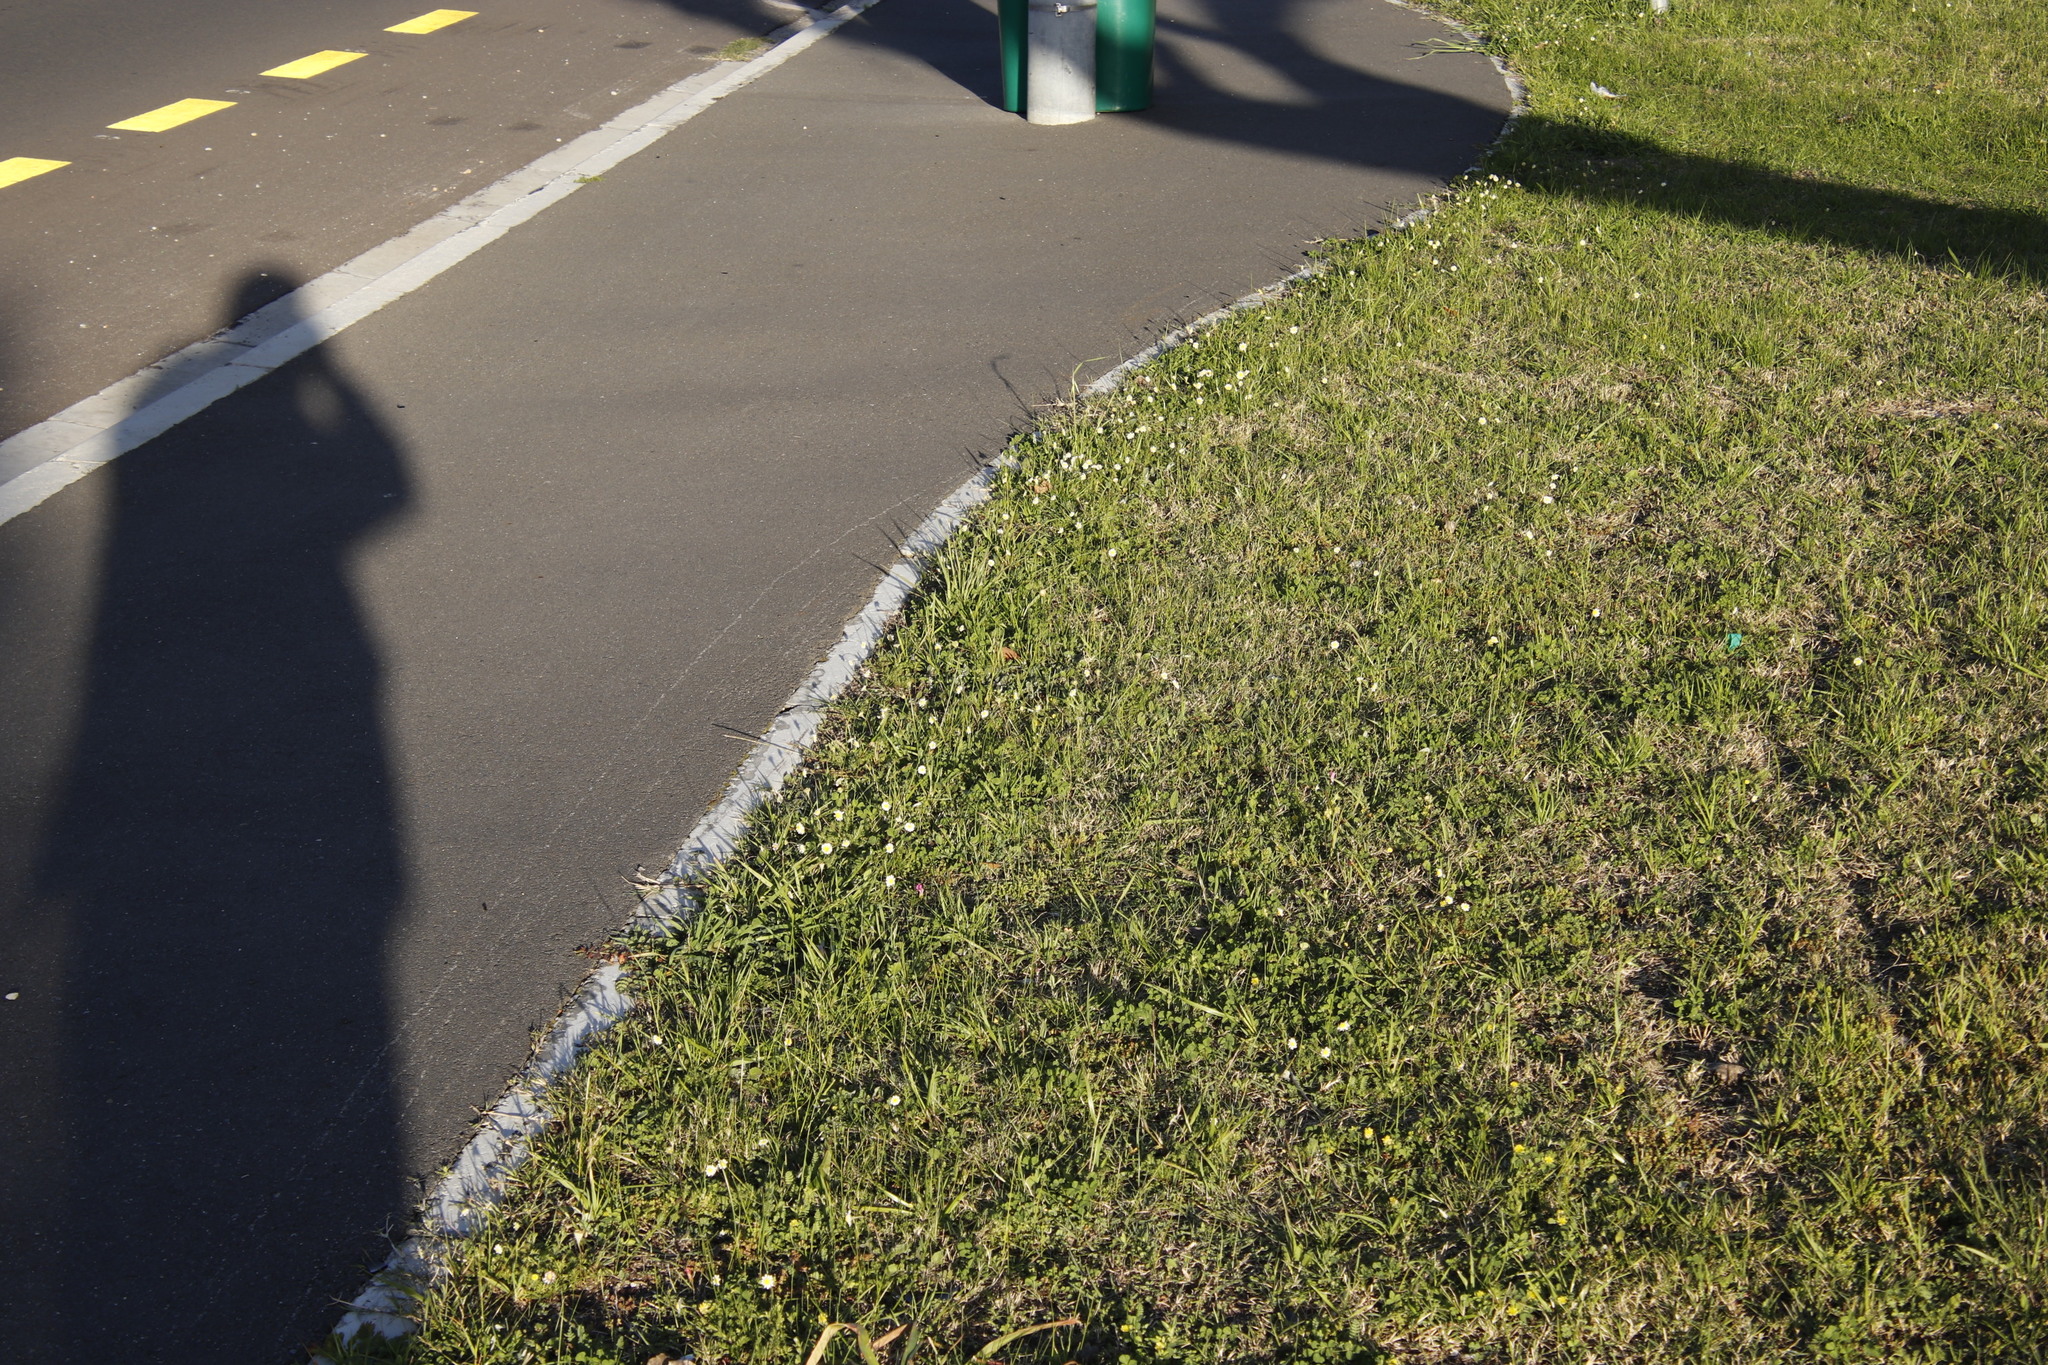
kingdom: Plantae
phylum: Tracheophyta
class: Magnoliopsida
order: Asterales
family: Asteraceae
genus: Cotula
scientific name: Cotula turbinata
